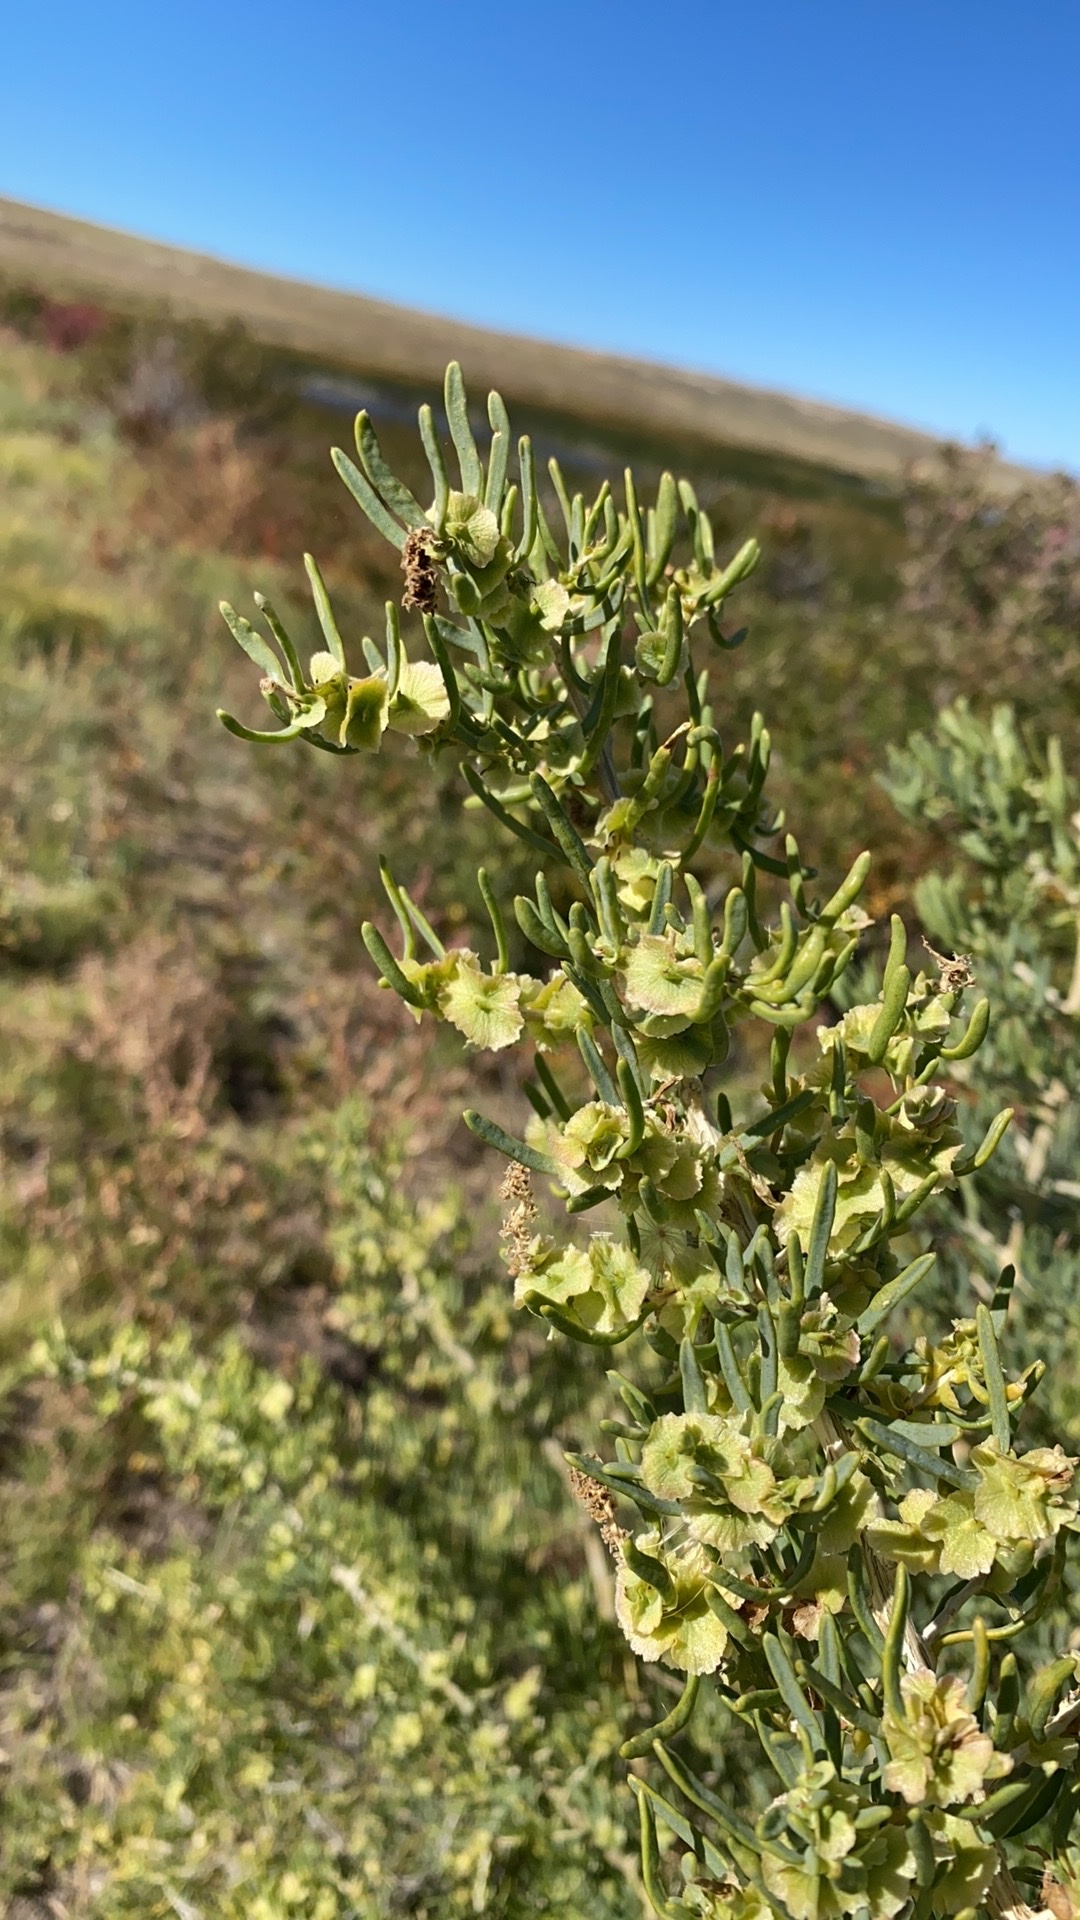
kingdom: Plantae
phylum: Tracheophyta
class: Magnoliopsida
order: Caryophyllales
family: Sarcobataceae
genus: Sarcobatus
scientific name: Sarcobatus vermiculatus
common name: Greasewood
